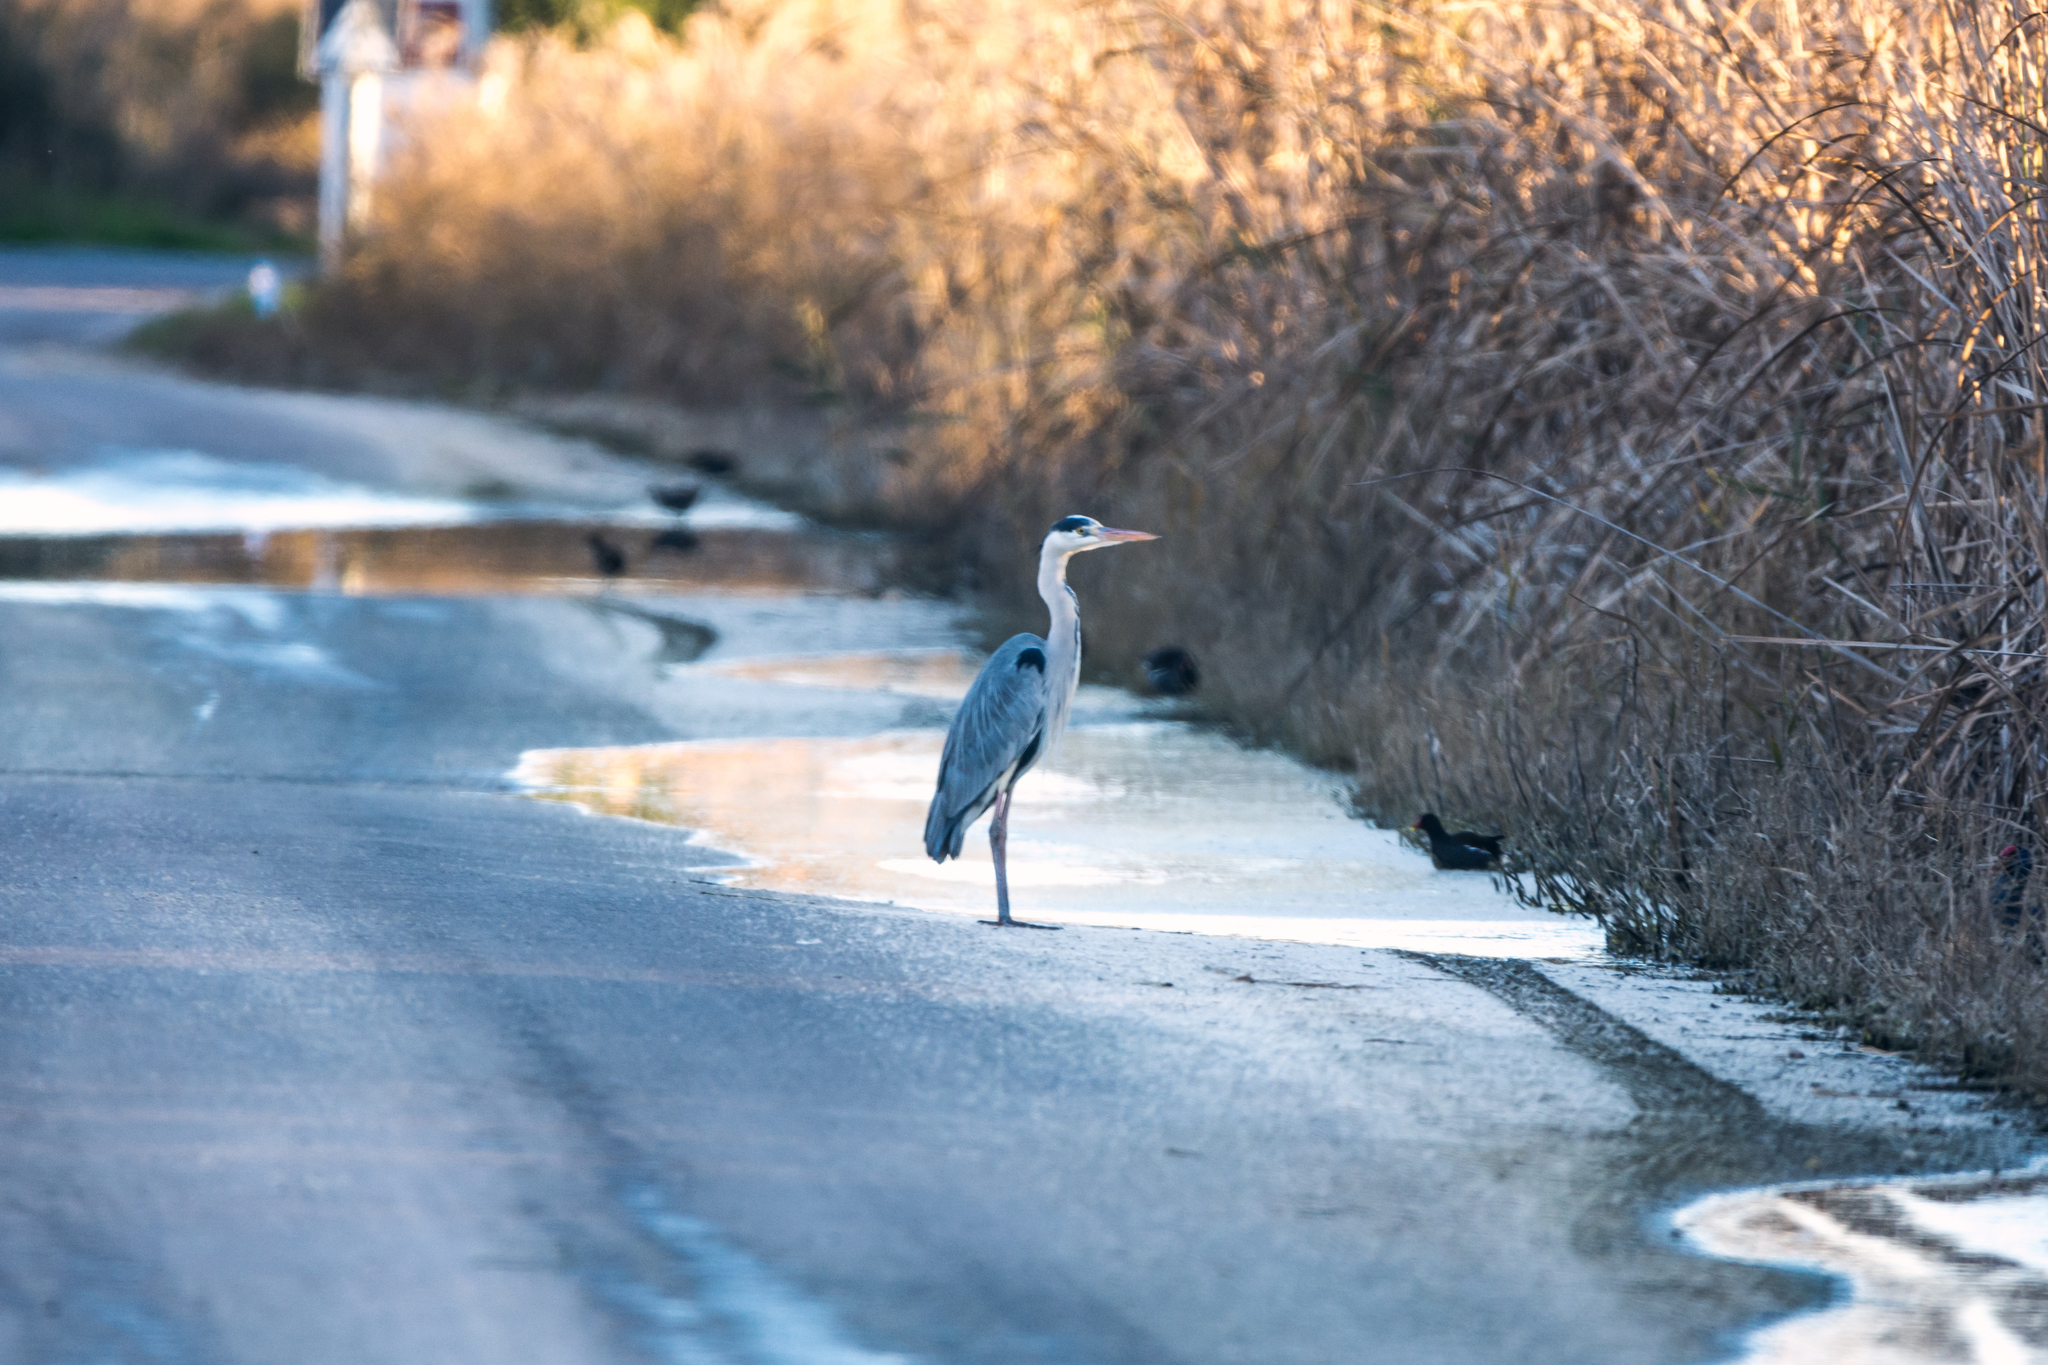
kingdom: Animalia
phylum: Chordata
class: Aves
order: Pelecaniformes
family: Ardeidae
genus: Ardea
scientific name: Ardea cinerea
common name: Grey heron
